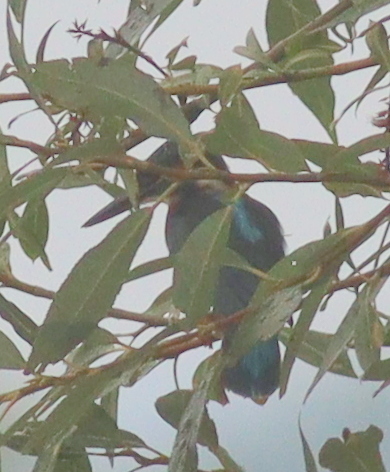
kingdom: Animalia
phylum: Chordata
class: Aves
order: Coraciiformes
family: Alcedinidae
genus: Alcedo
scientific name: Alcedo atthis
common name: Common kingfisher
